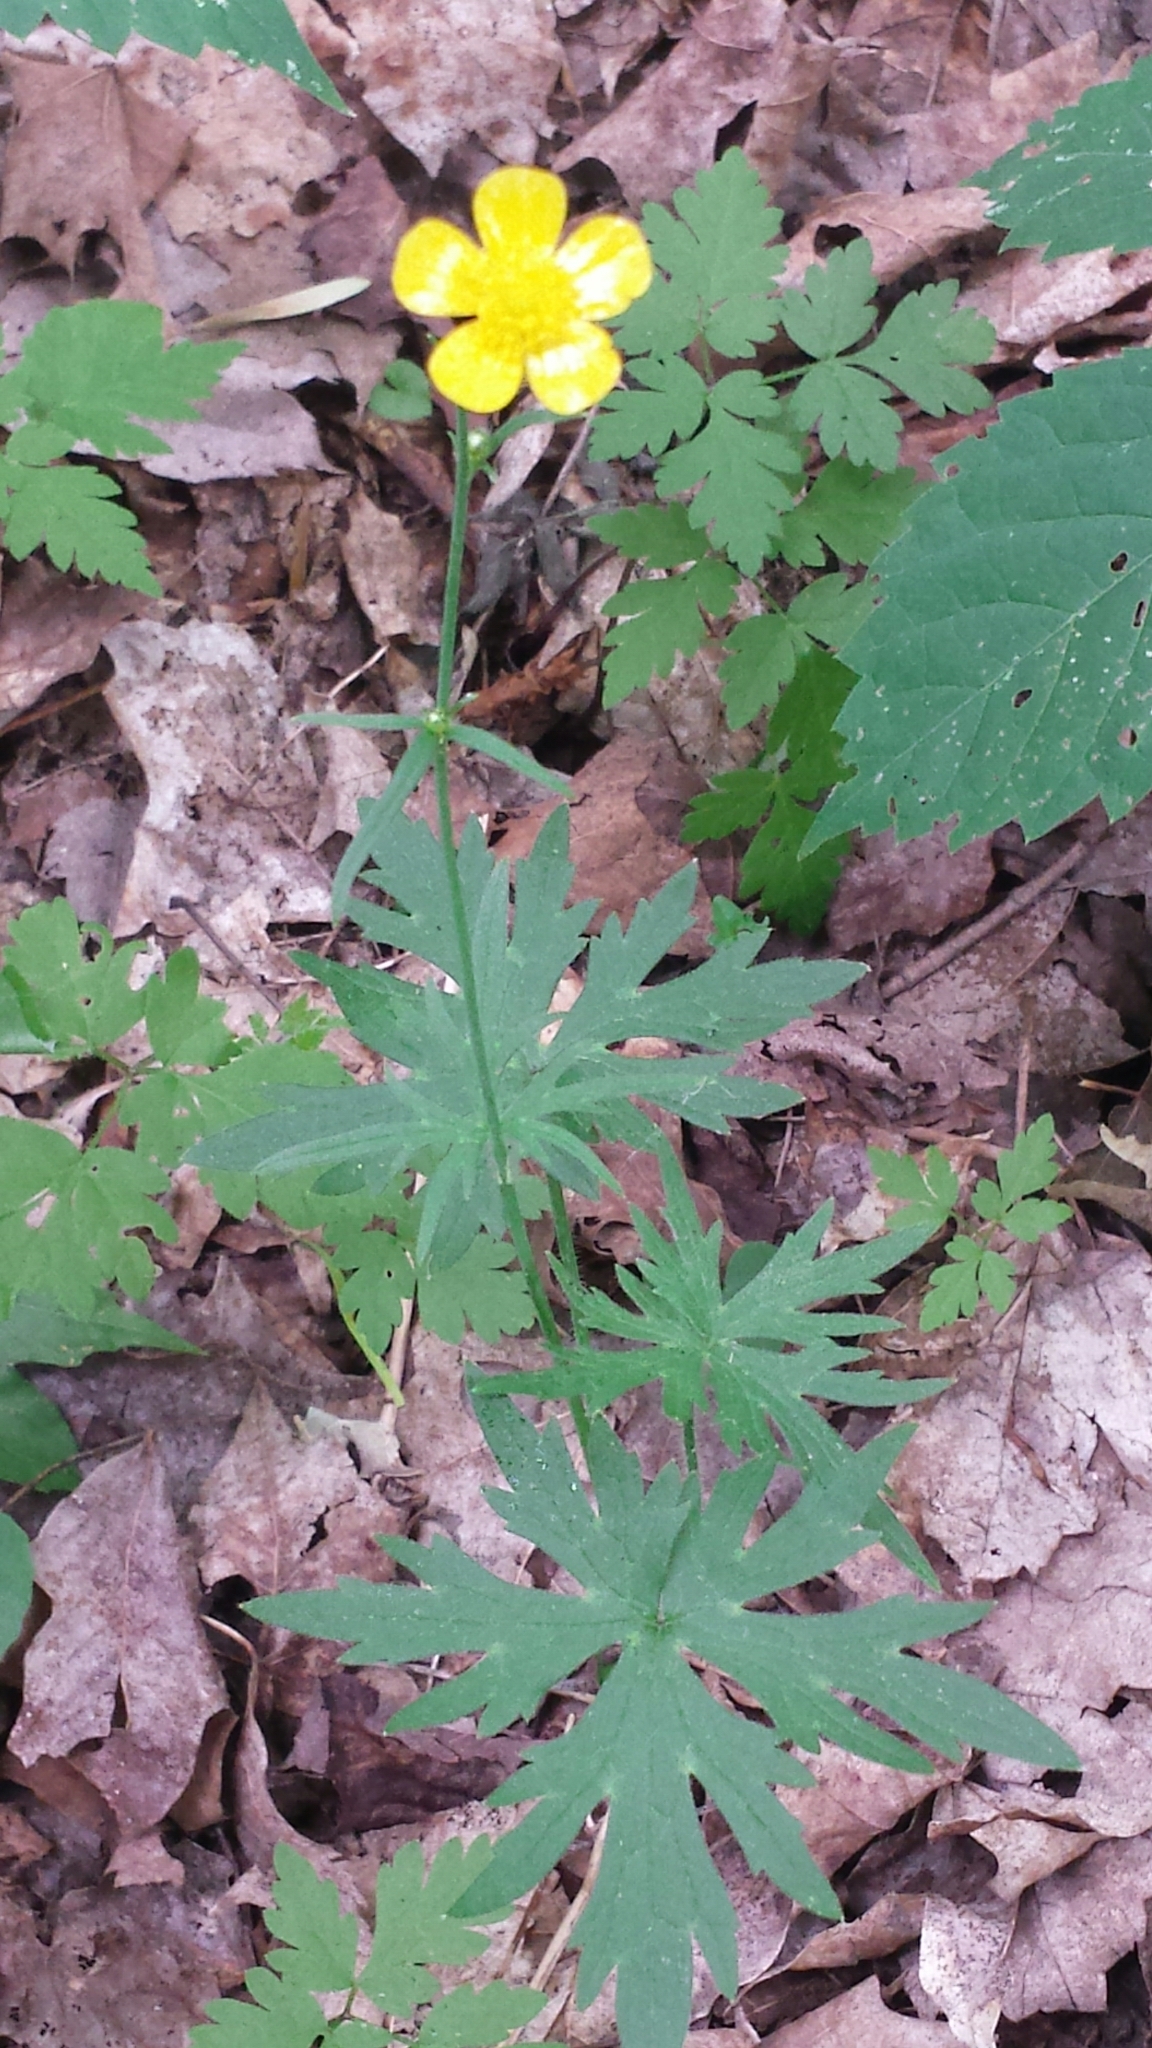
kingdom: Plantae
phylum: Tracheophyta
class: Magnoliopsida
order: Ranunculales
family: Ranunculaceae
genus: Ranunculus
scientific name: Ranunculus acris
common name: Meadow buttercup
